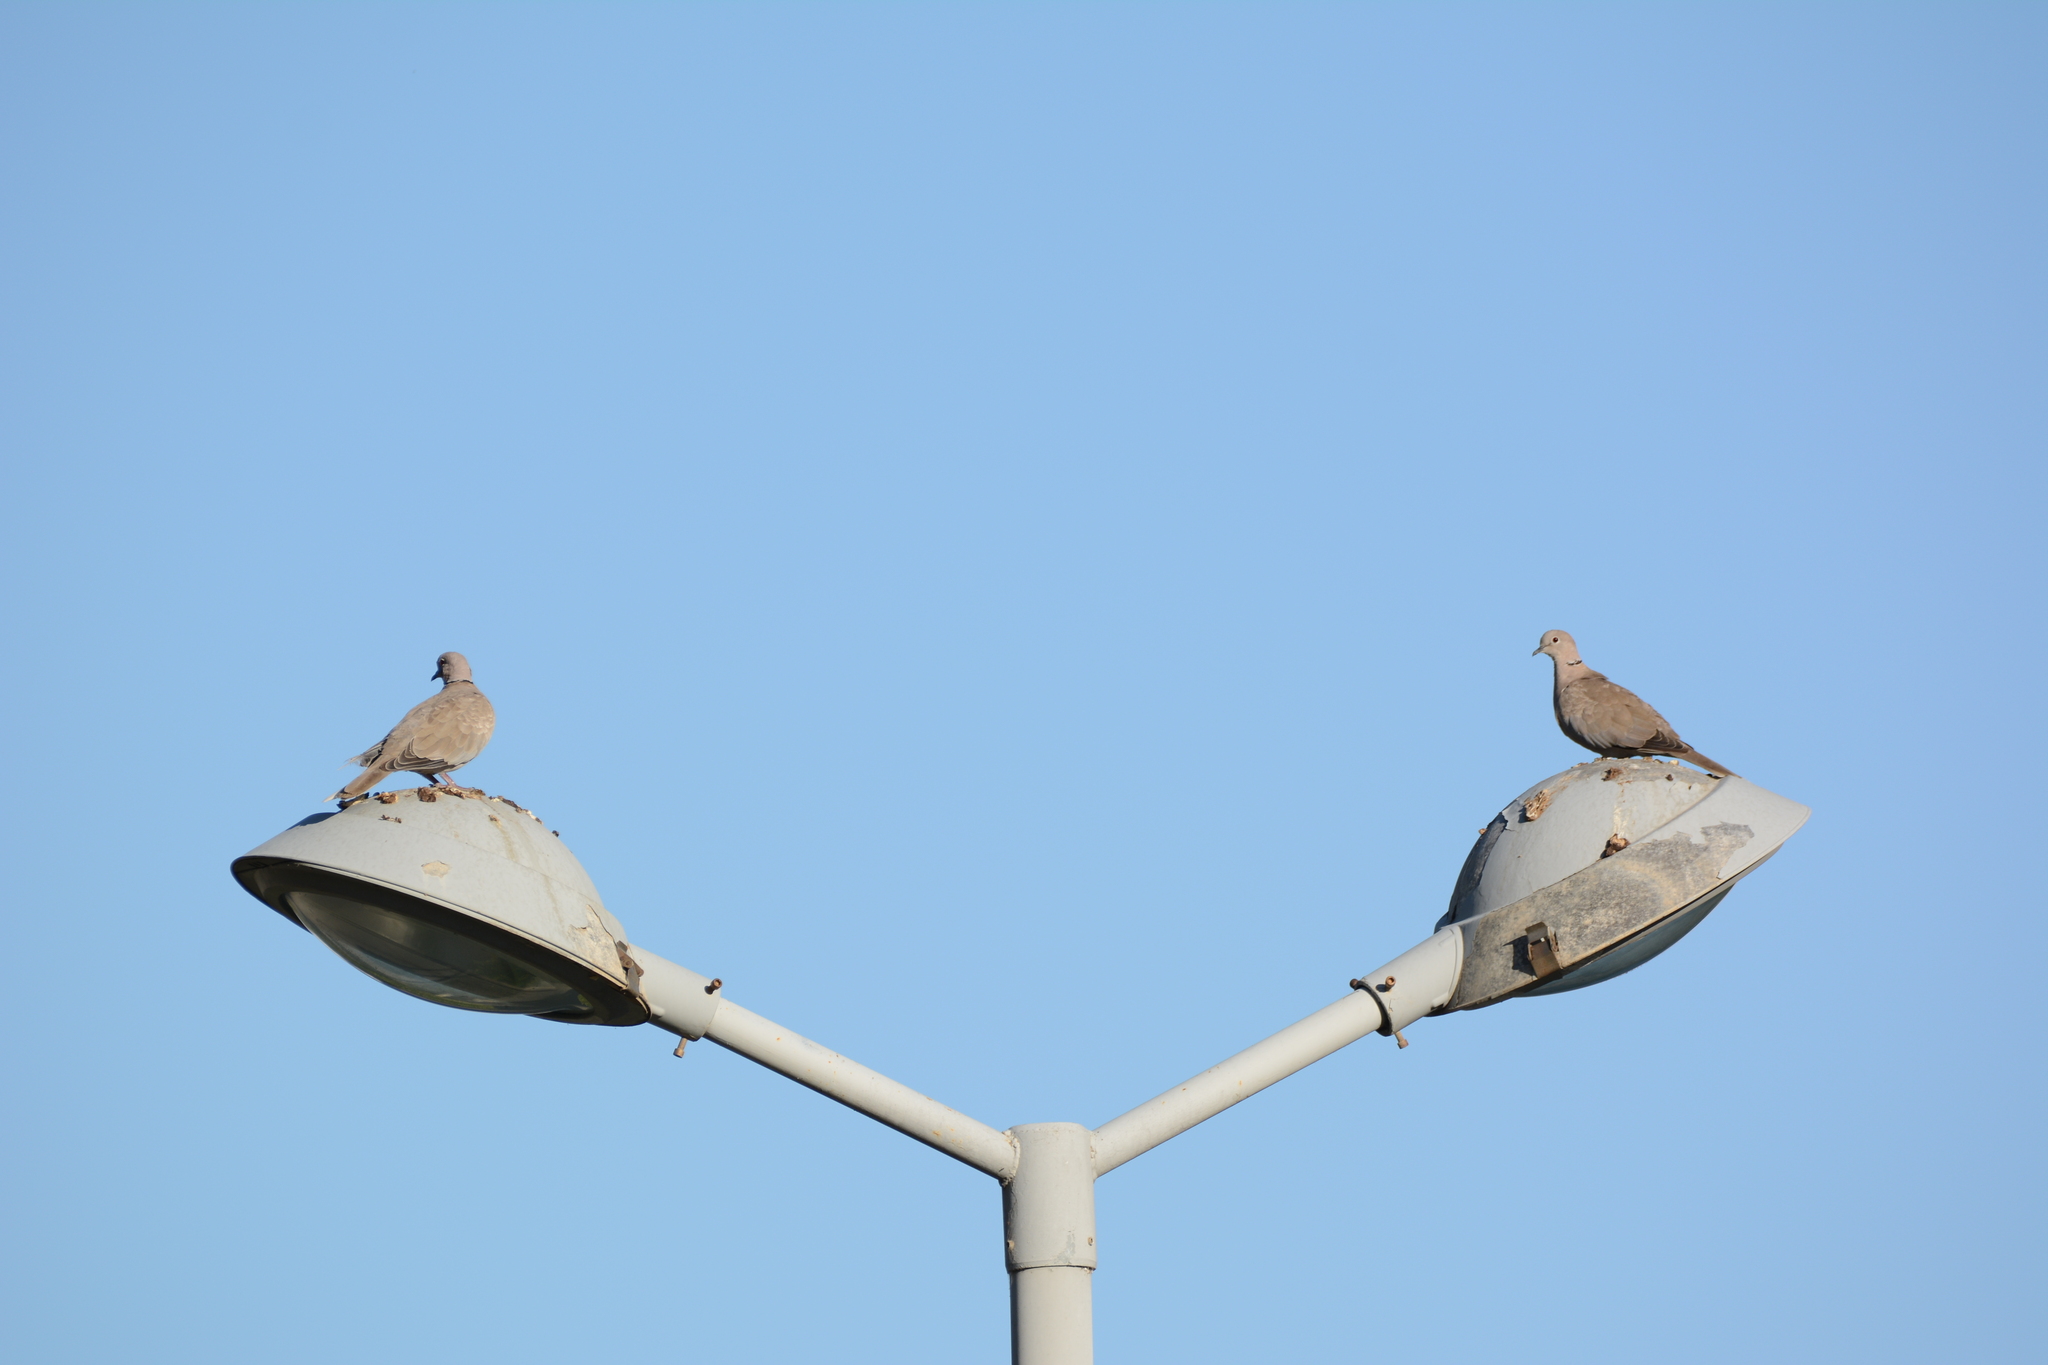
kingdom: Animalia
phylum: Chordata
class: Aves
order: Columbiformes
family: Columbidae
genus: Streptopelia
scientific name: Streptopelia decaocto
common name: Eurasian collared dove
